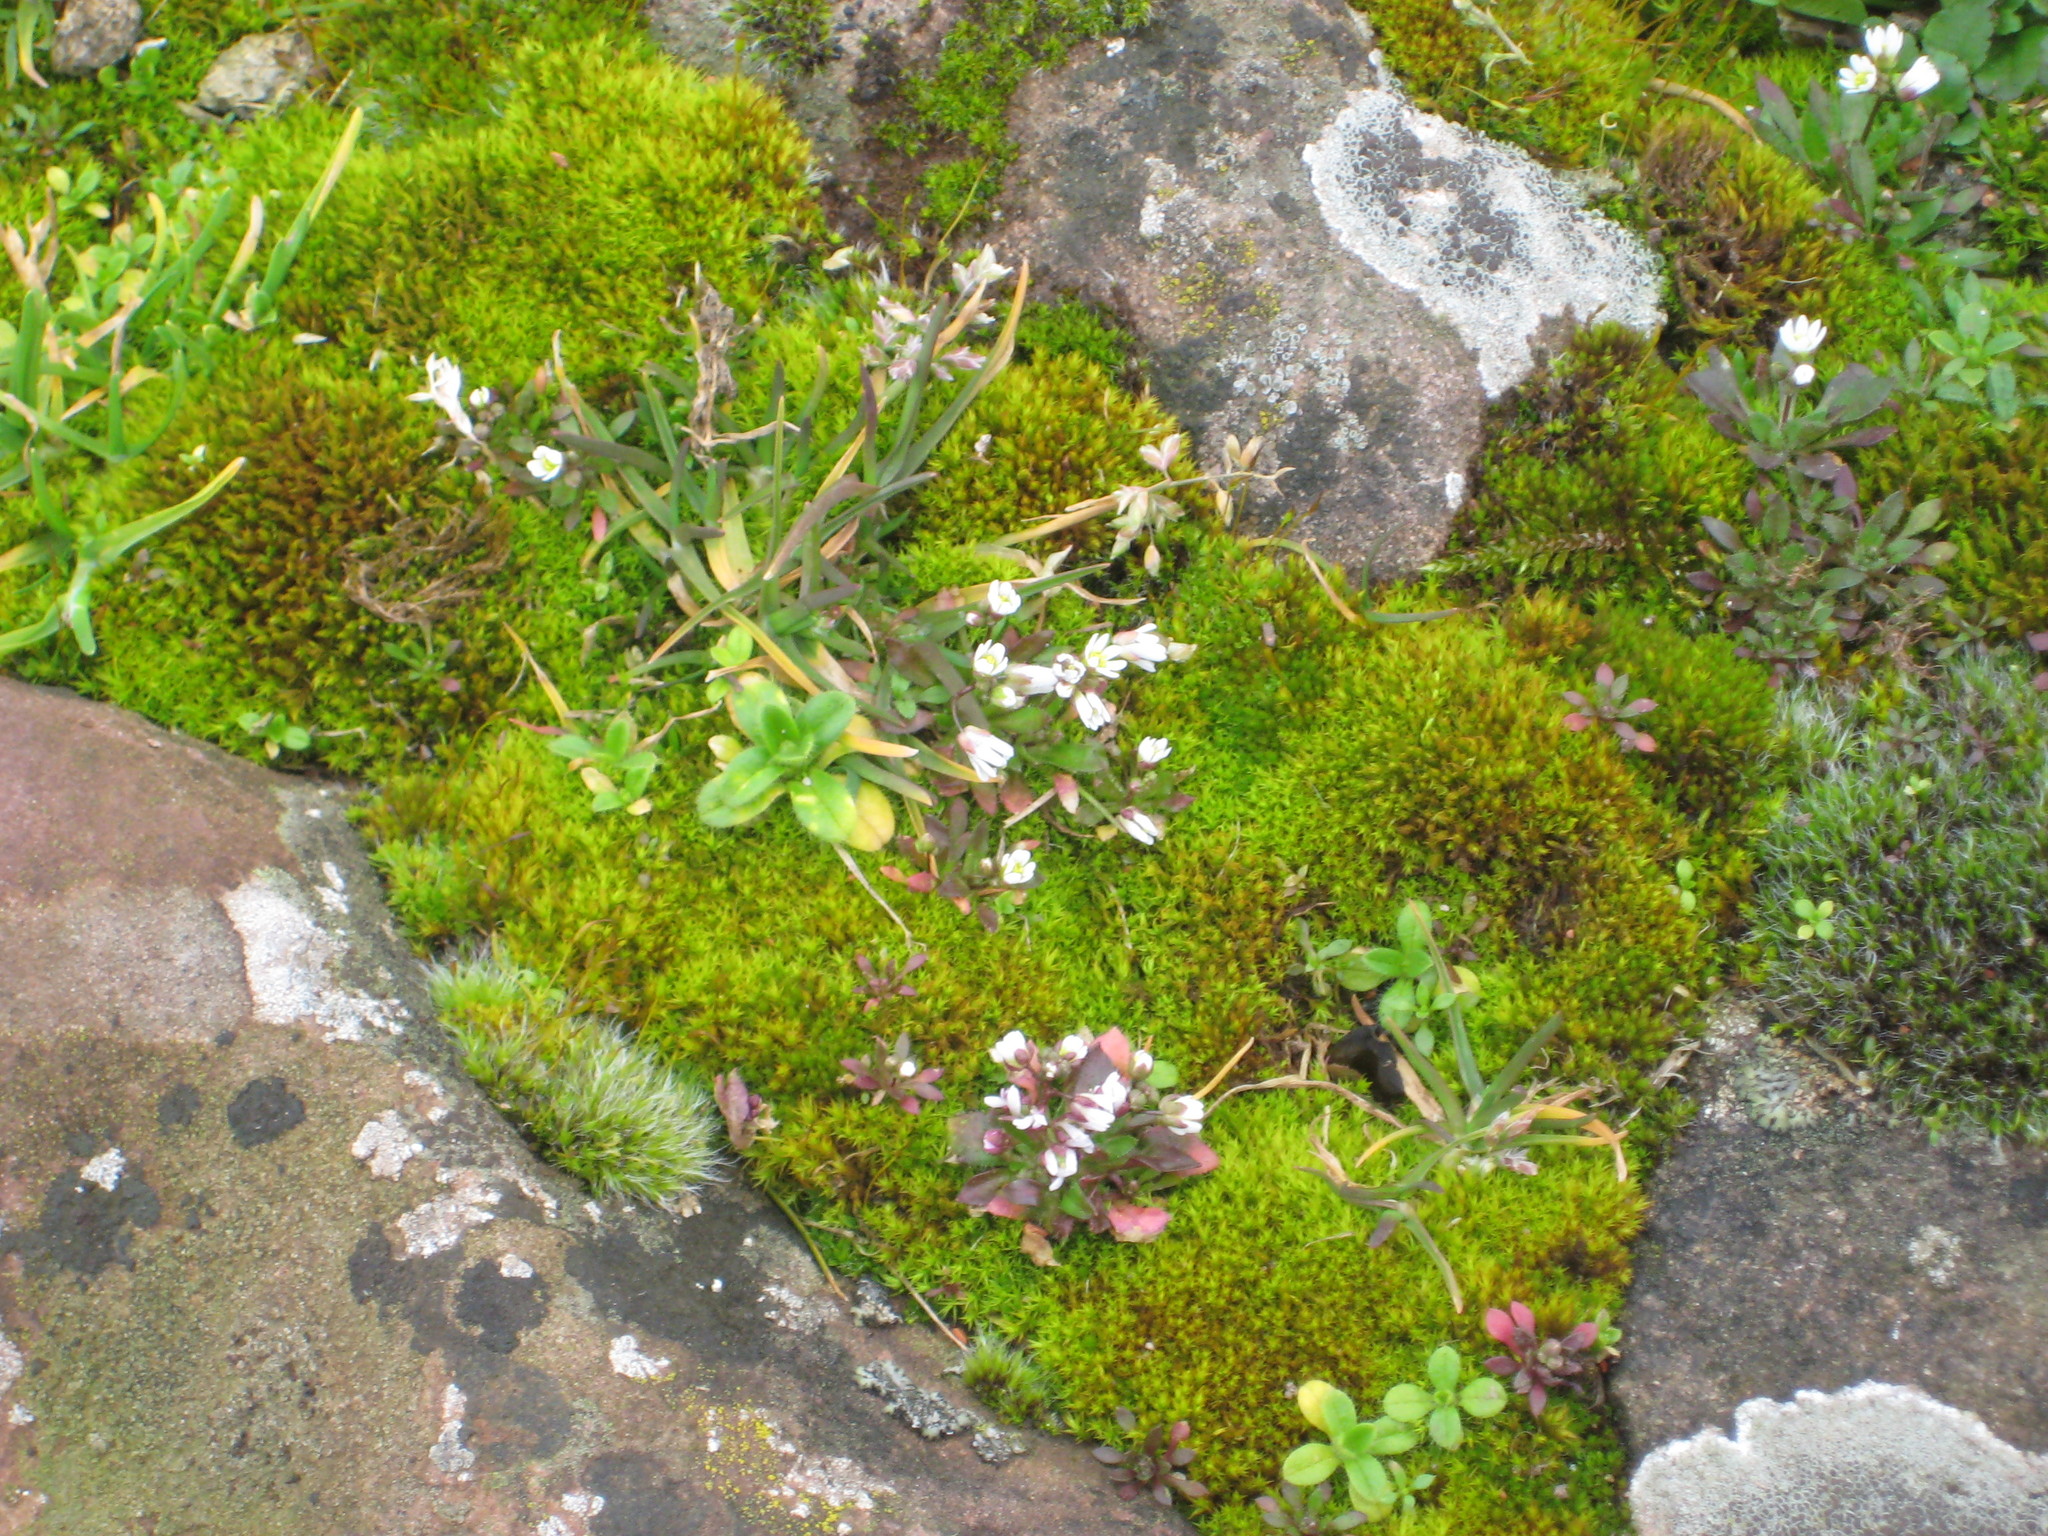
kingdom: Plantae
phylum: Tracheophyta
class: Magnoliopsida
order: Brassicales
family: Brassicaceae
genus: Draba
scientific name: Draba verna
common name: Spring draba
